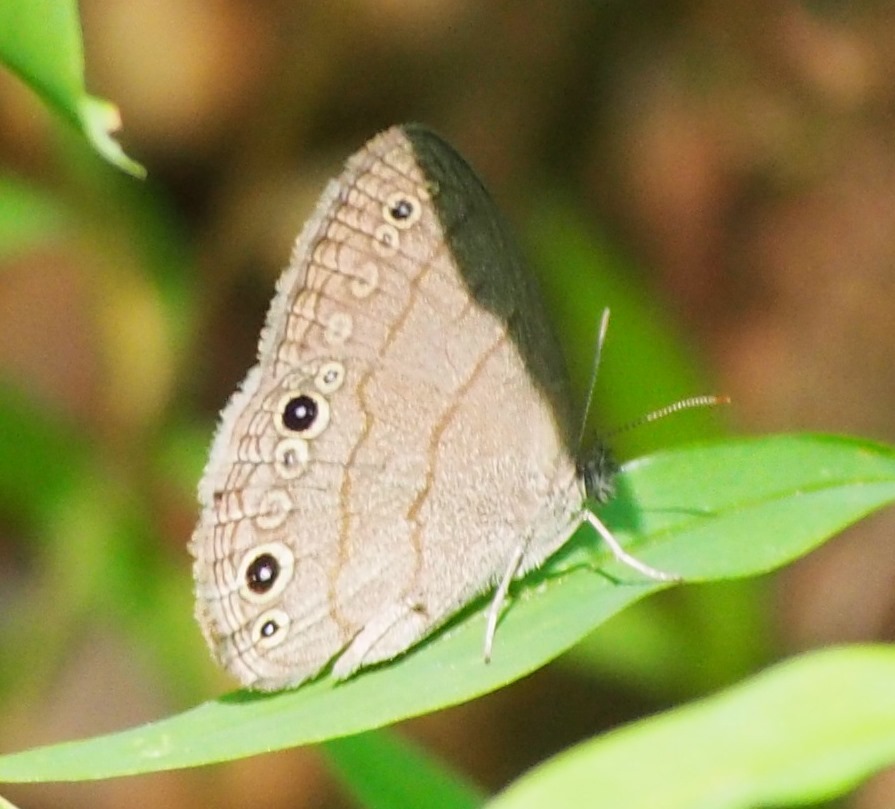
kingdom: Animalia
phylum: Arthropoda
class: Insecta
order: Lepidoptera
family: Nymphalidae
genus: Hermeuptychia
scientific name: Hermeuptychia hermes
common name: Hermes satyr
